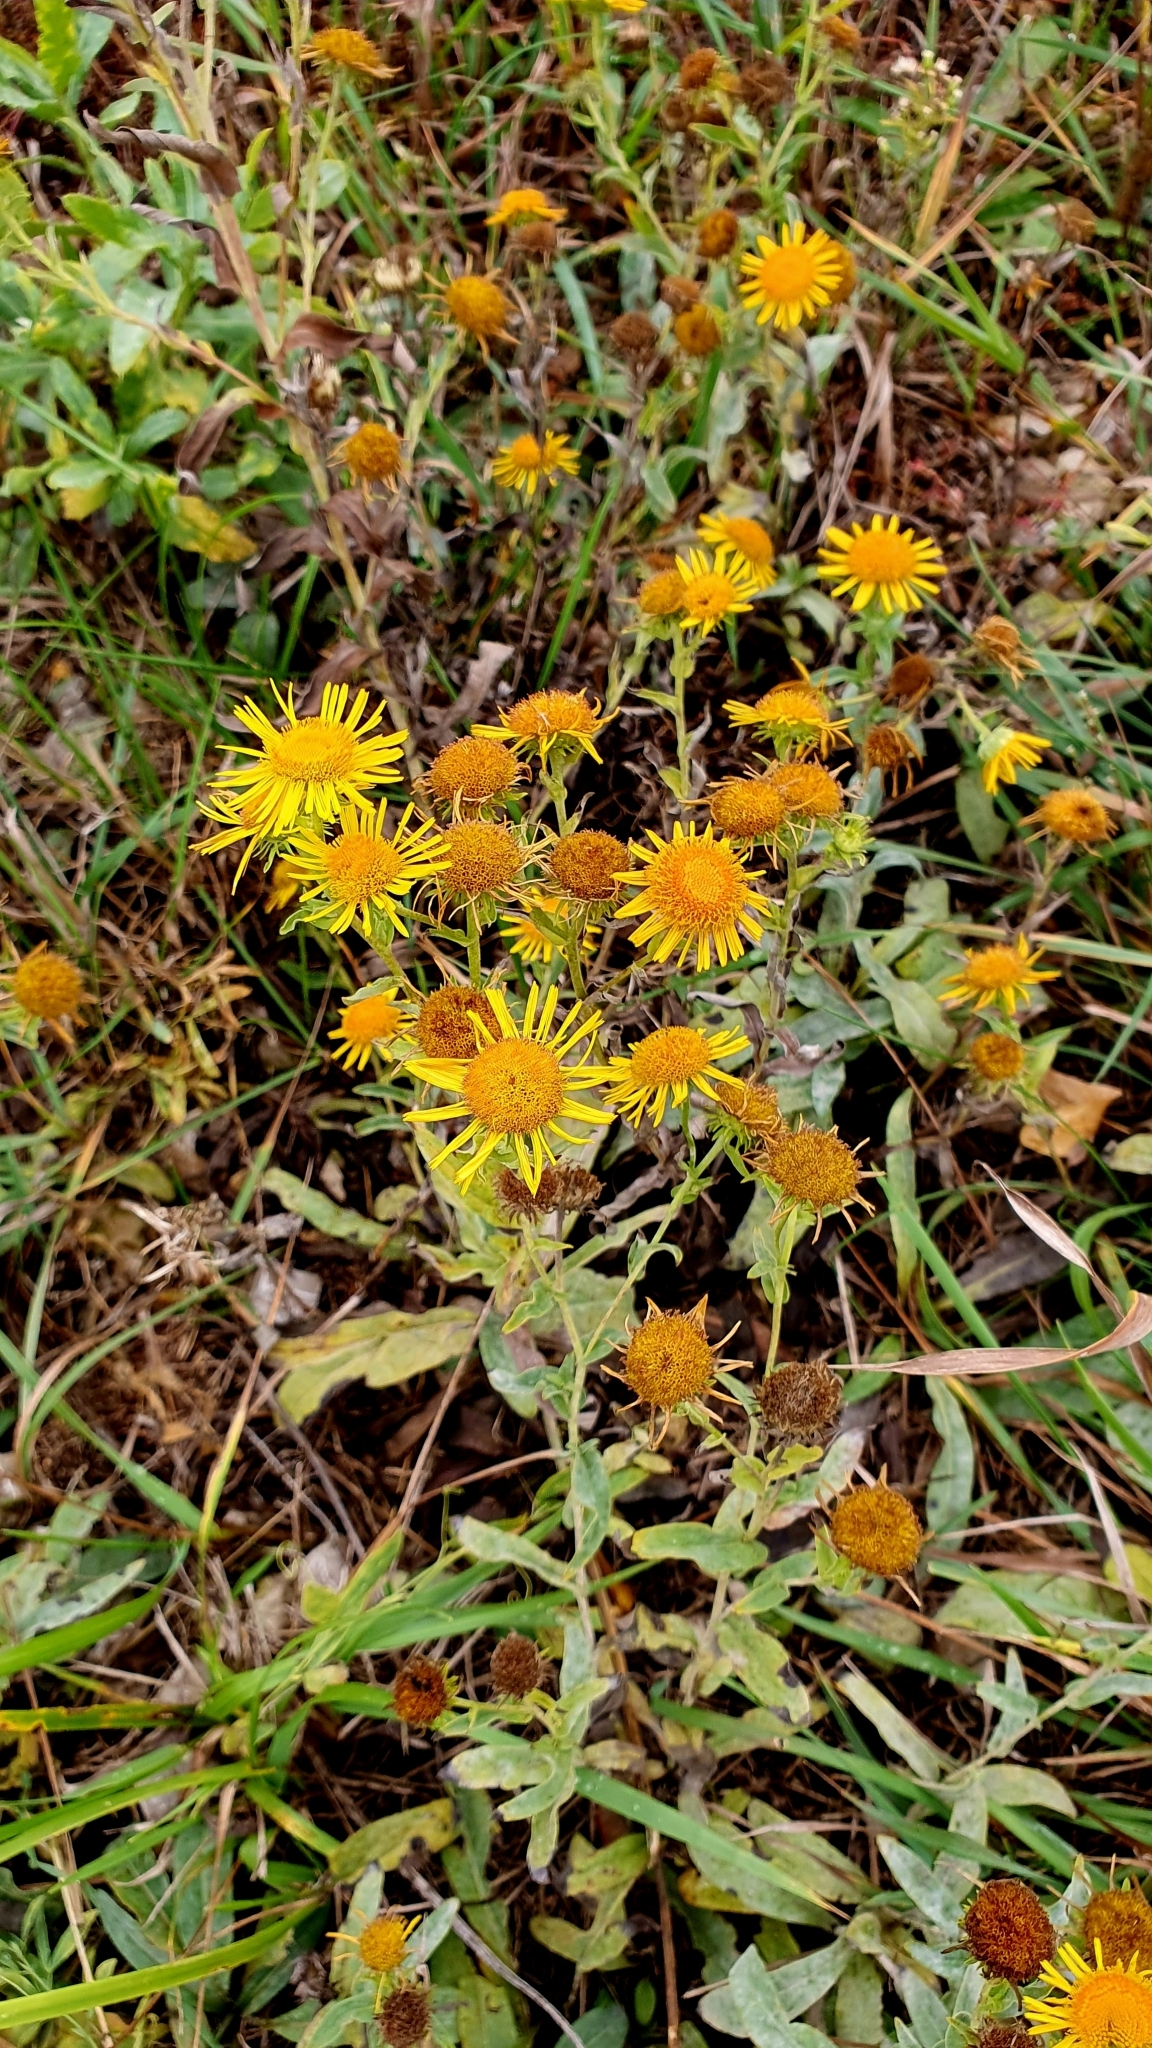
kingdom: Plantae
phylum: Tracheophyta
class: Magnoliopsida
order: Asterales
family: Asteraceae
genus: Pentanema
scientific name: Pentanema britannicum
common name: British elecampane
